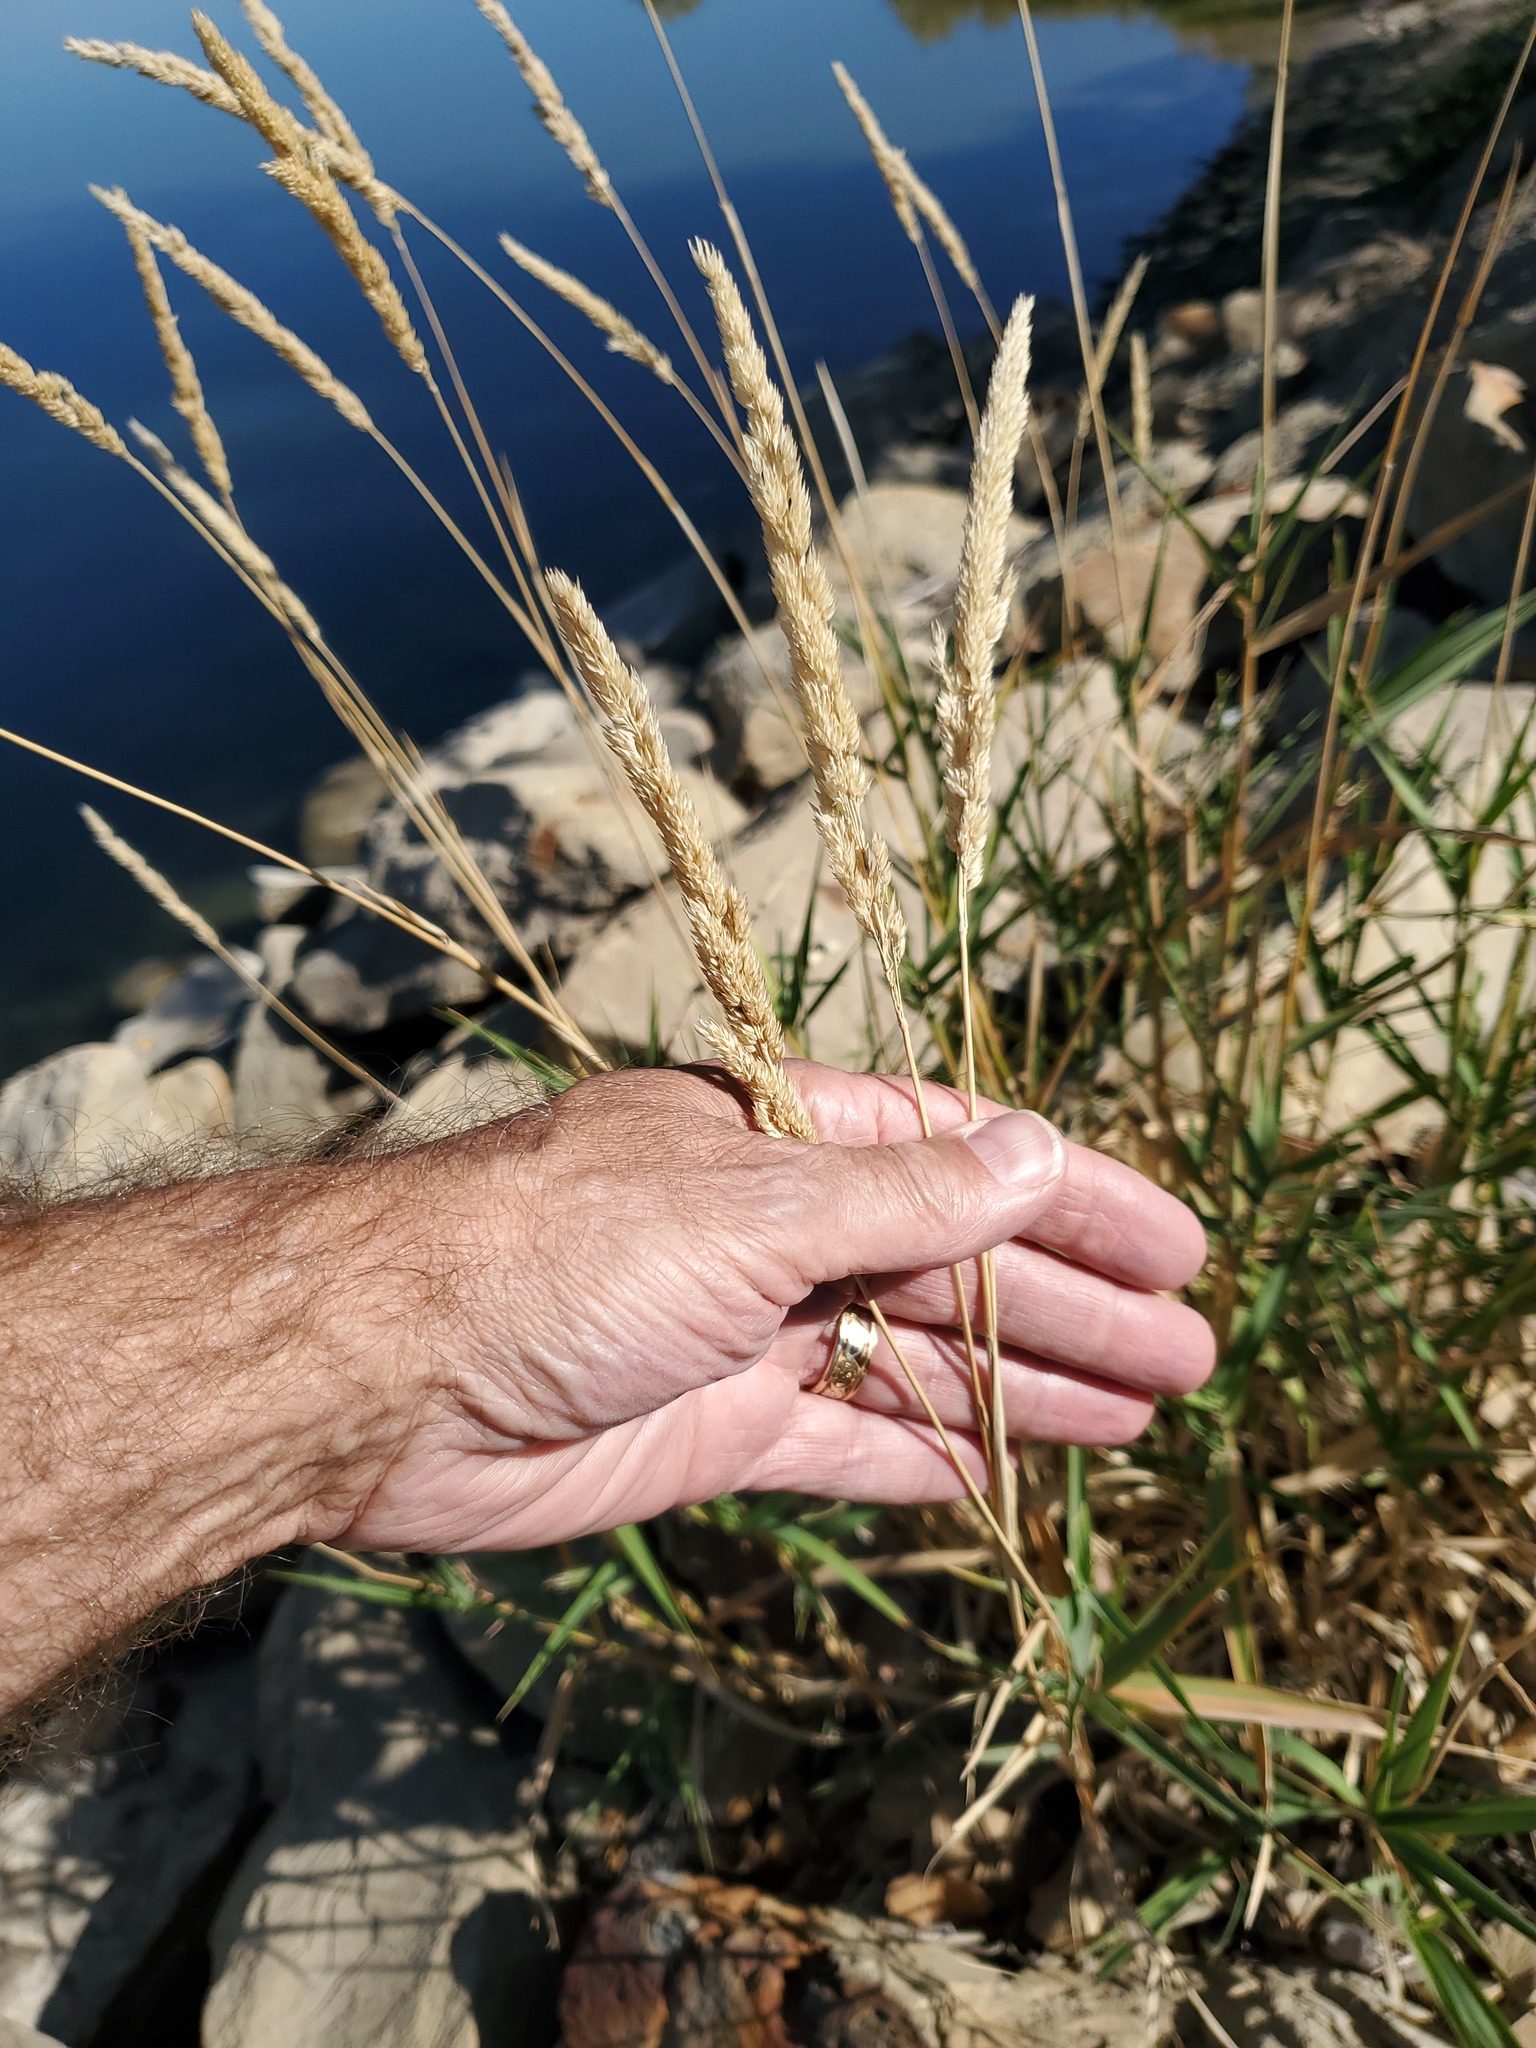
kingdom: Plantae
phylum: Tracheophyta
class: Liliopsida
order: Poales
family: Poaceae
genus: Phalaris
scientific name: Phalaris arundinacea
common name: Reed canary-grass
